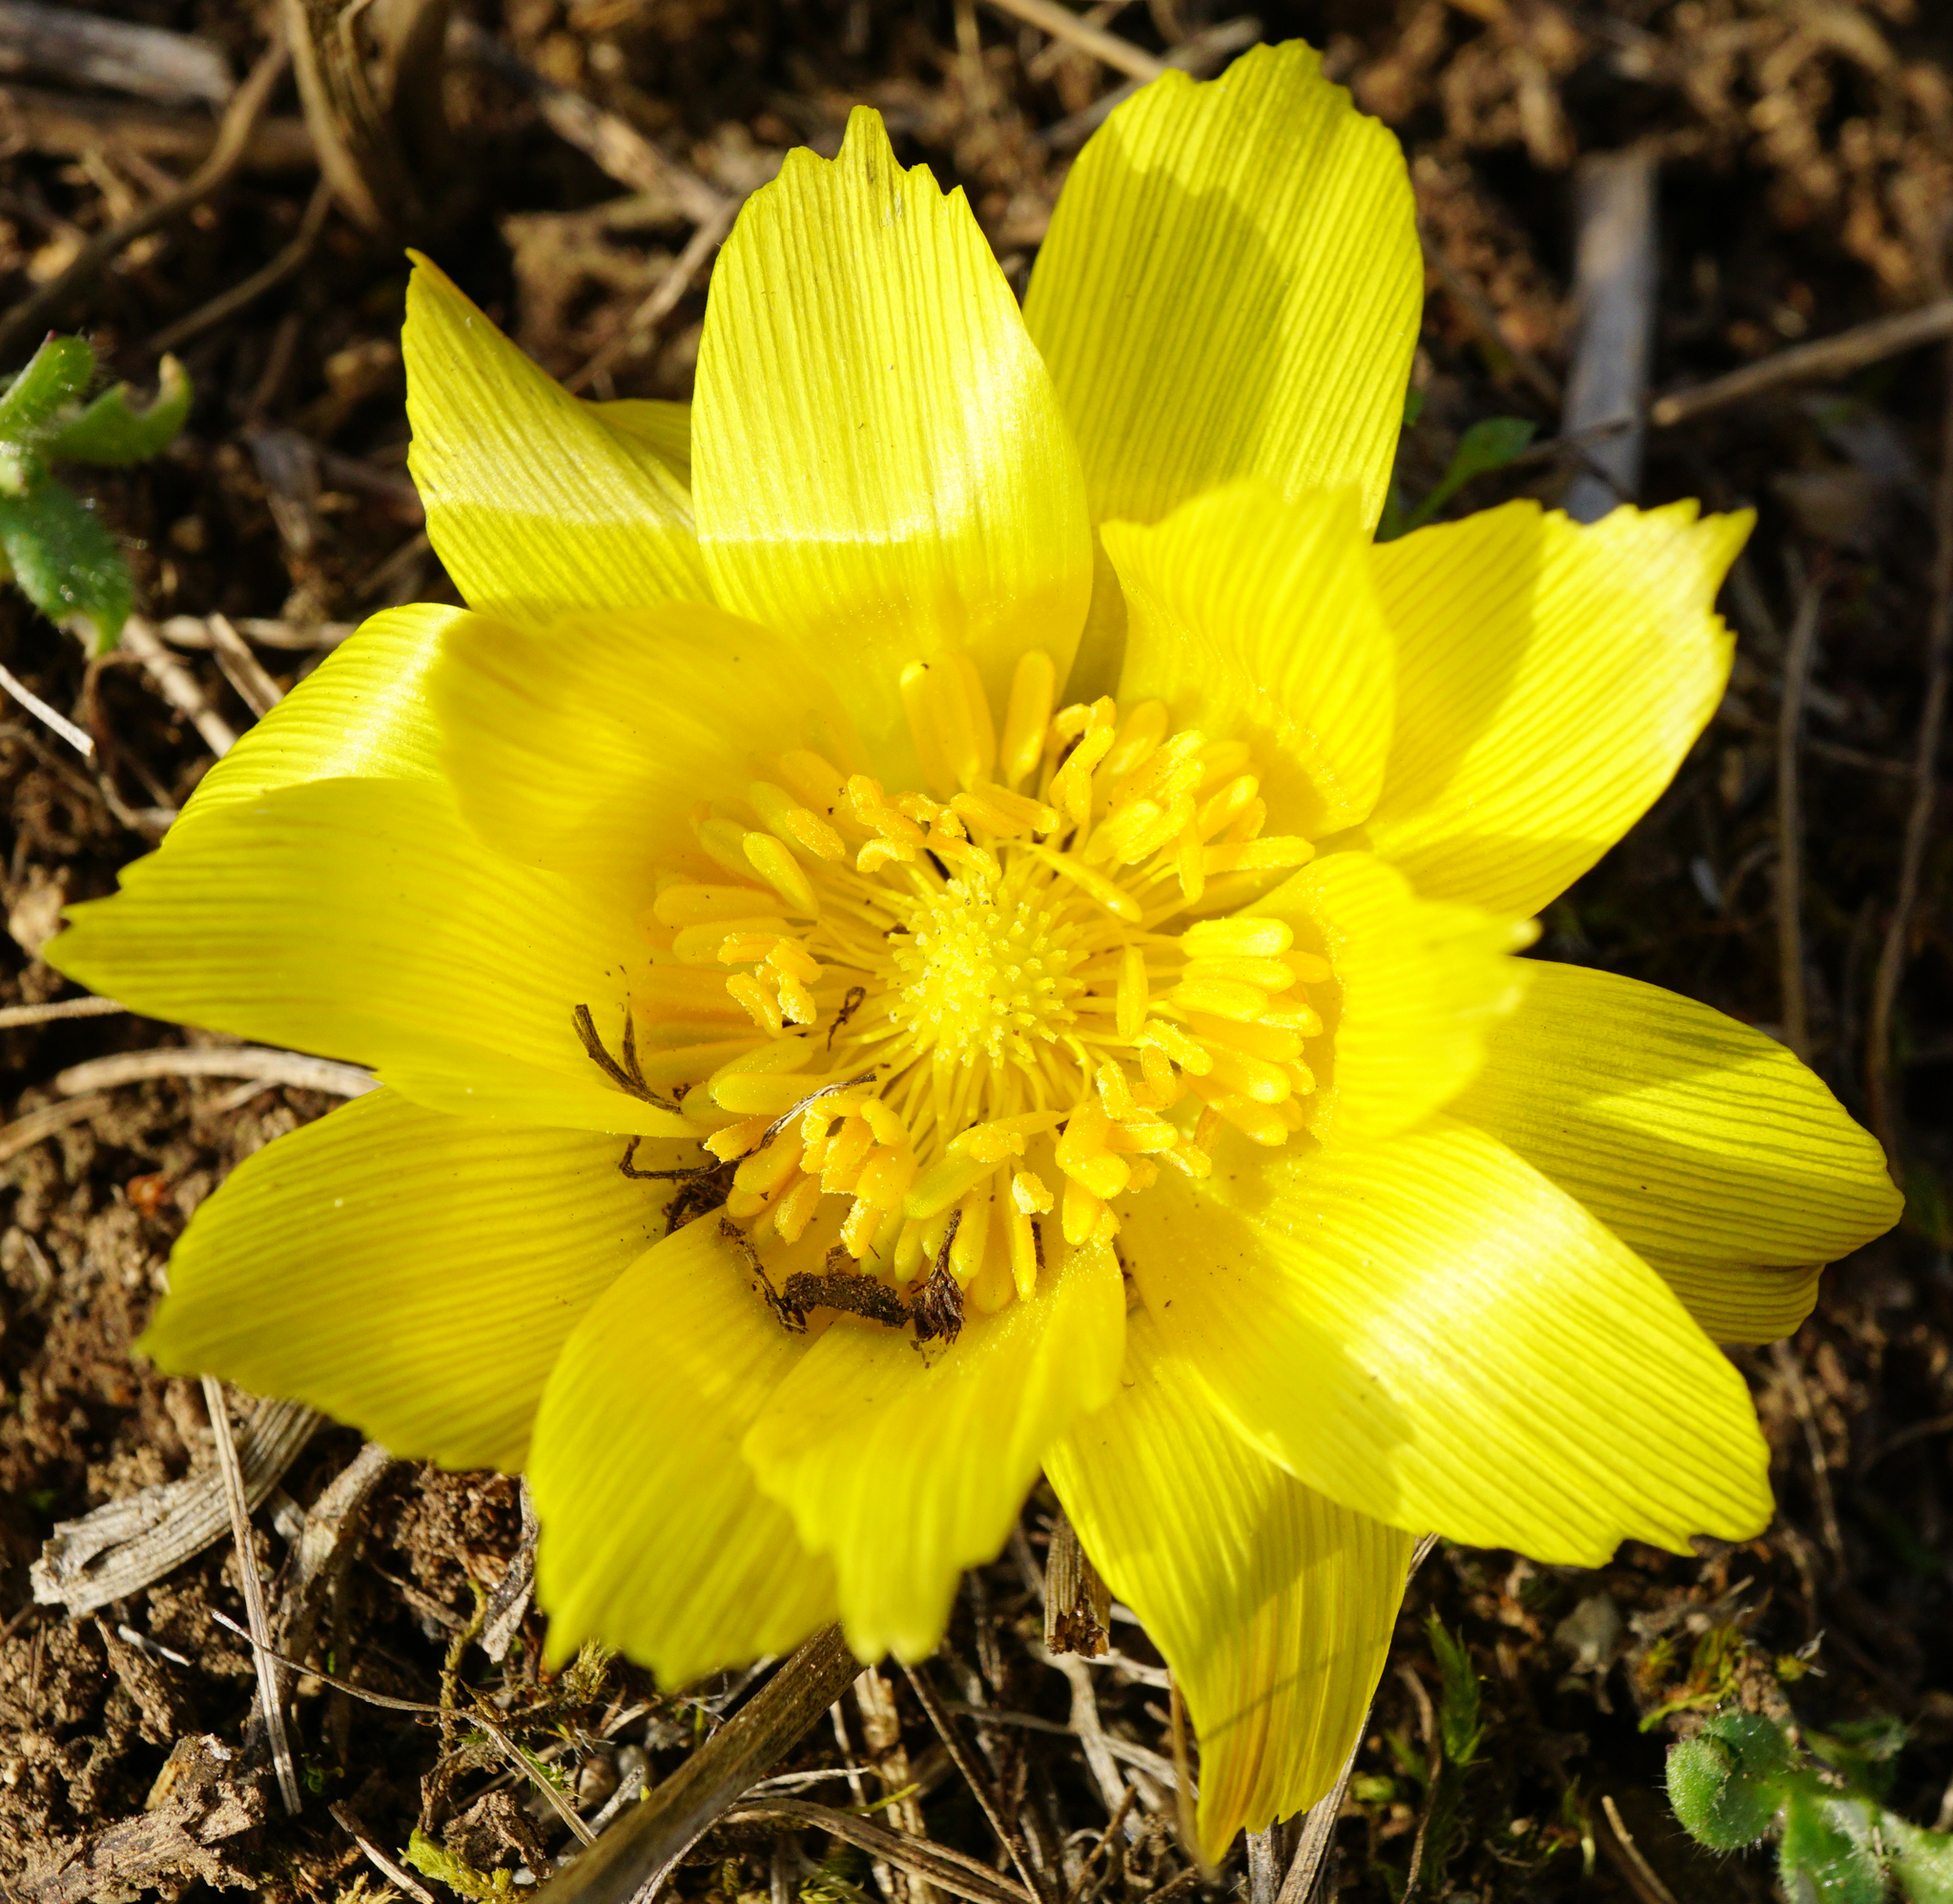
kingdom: Plantae
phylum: Tracheophyta
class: Magnoliopsida
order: Ranunculales
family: Ranunculaceae
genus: Adonis
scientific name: Adonis vernalis
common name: Yellow pheasants-eye
